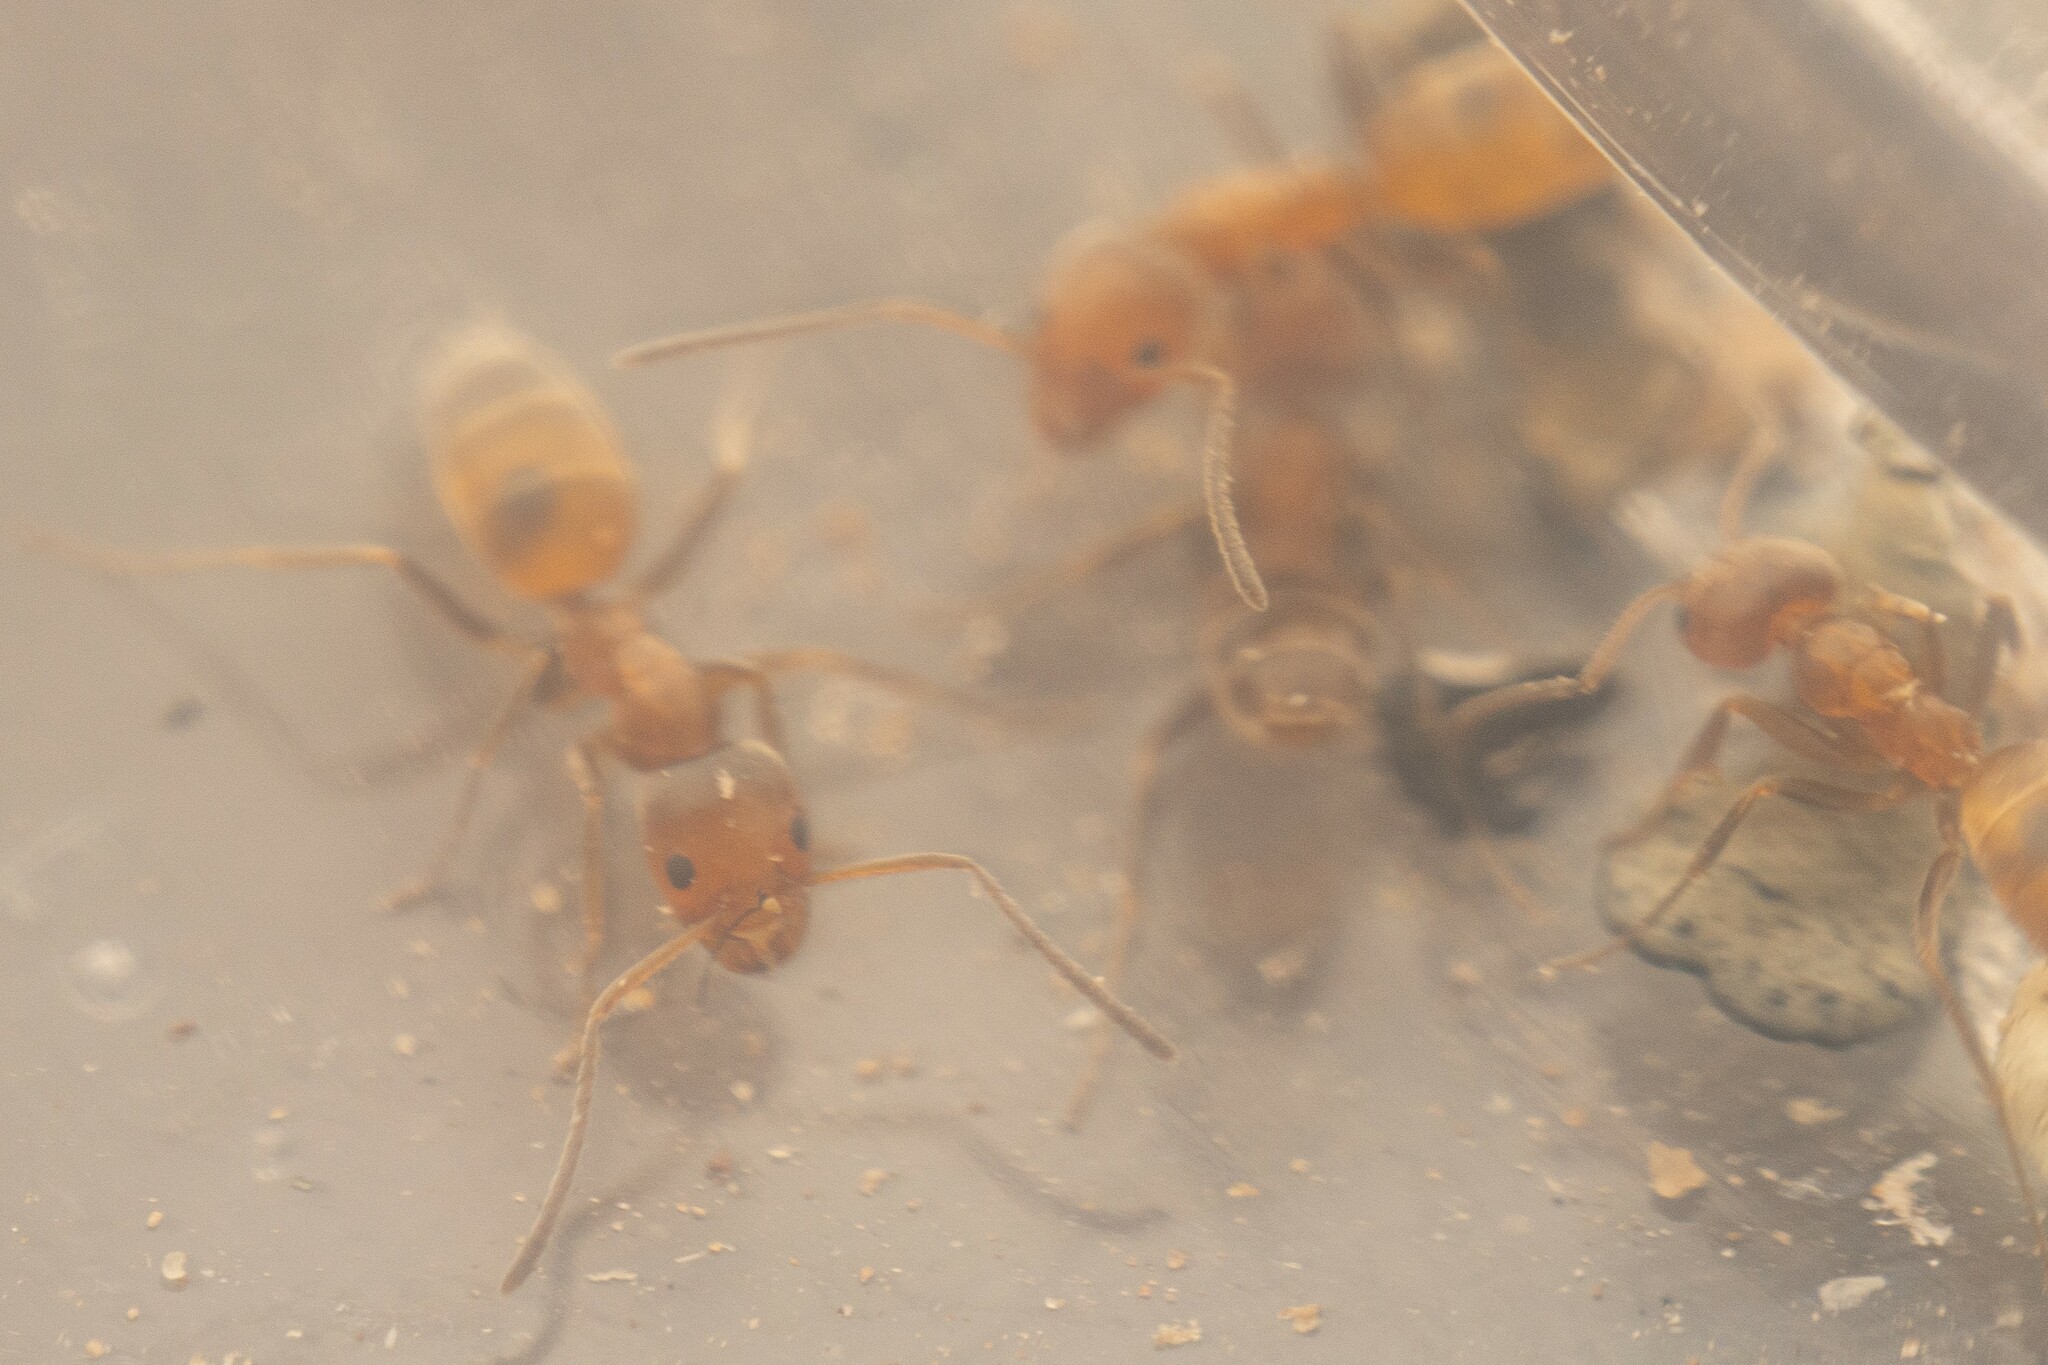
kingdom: Animalia
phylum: Arthropoda
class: Insecta
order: Hymenoptera
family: Formicidae
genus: Forelius
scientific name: Forelius pruinosus
